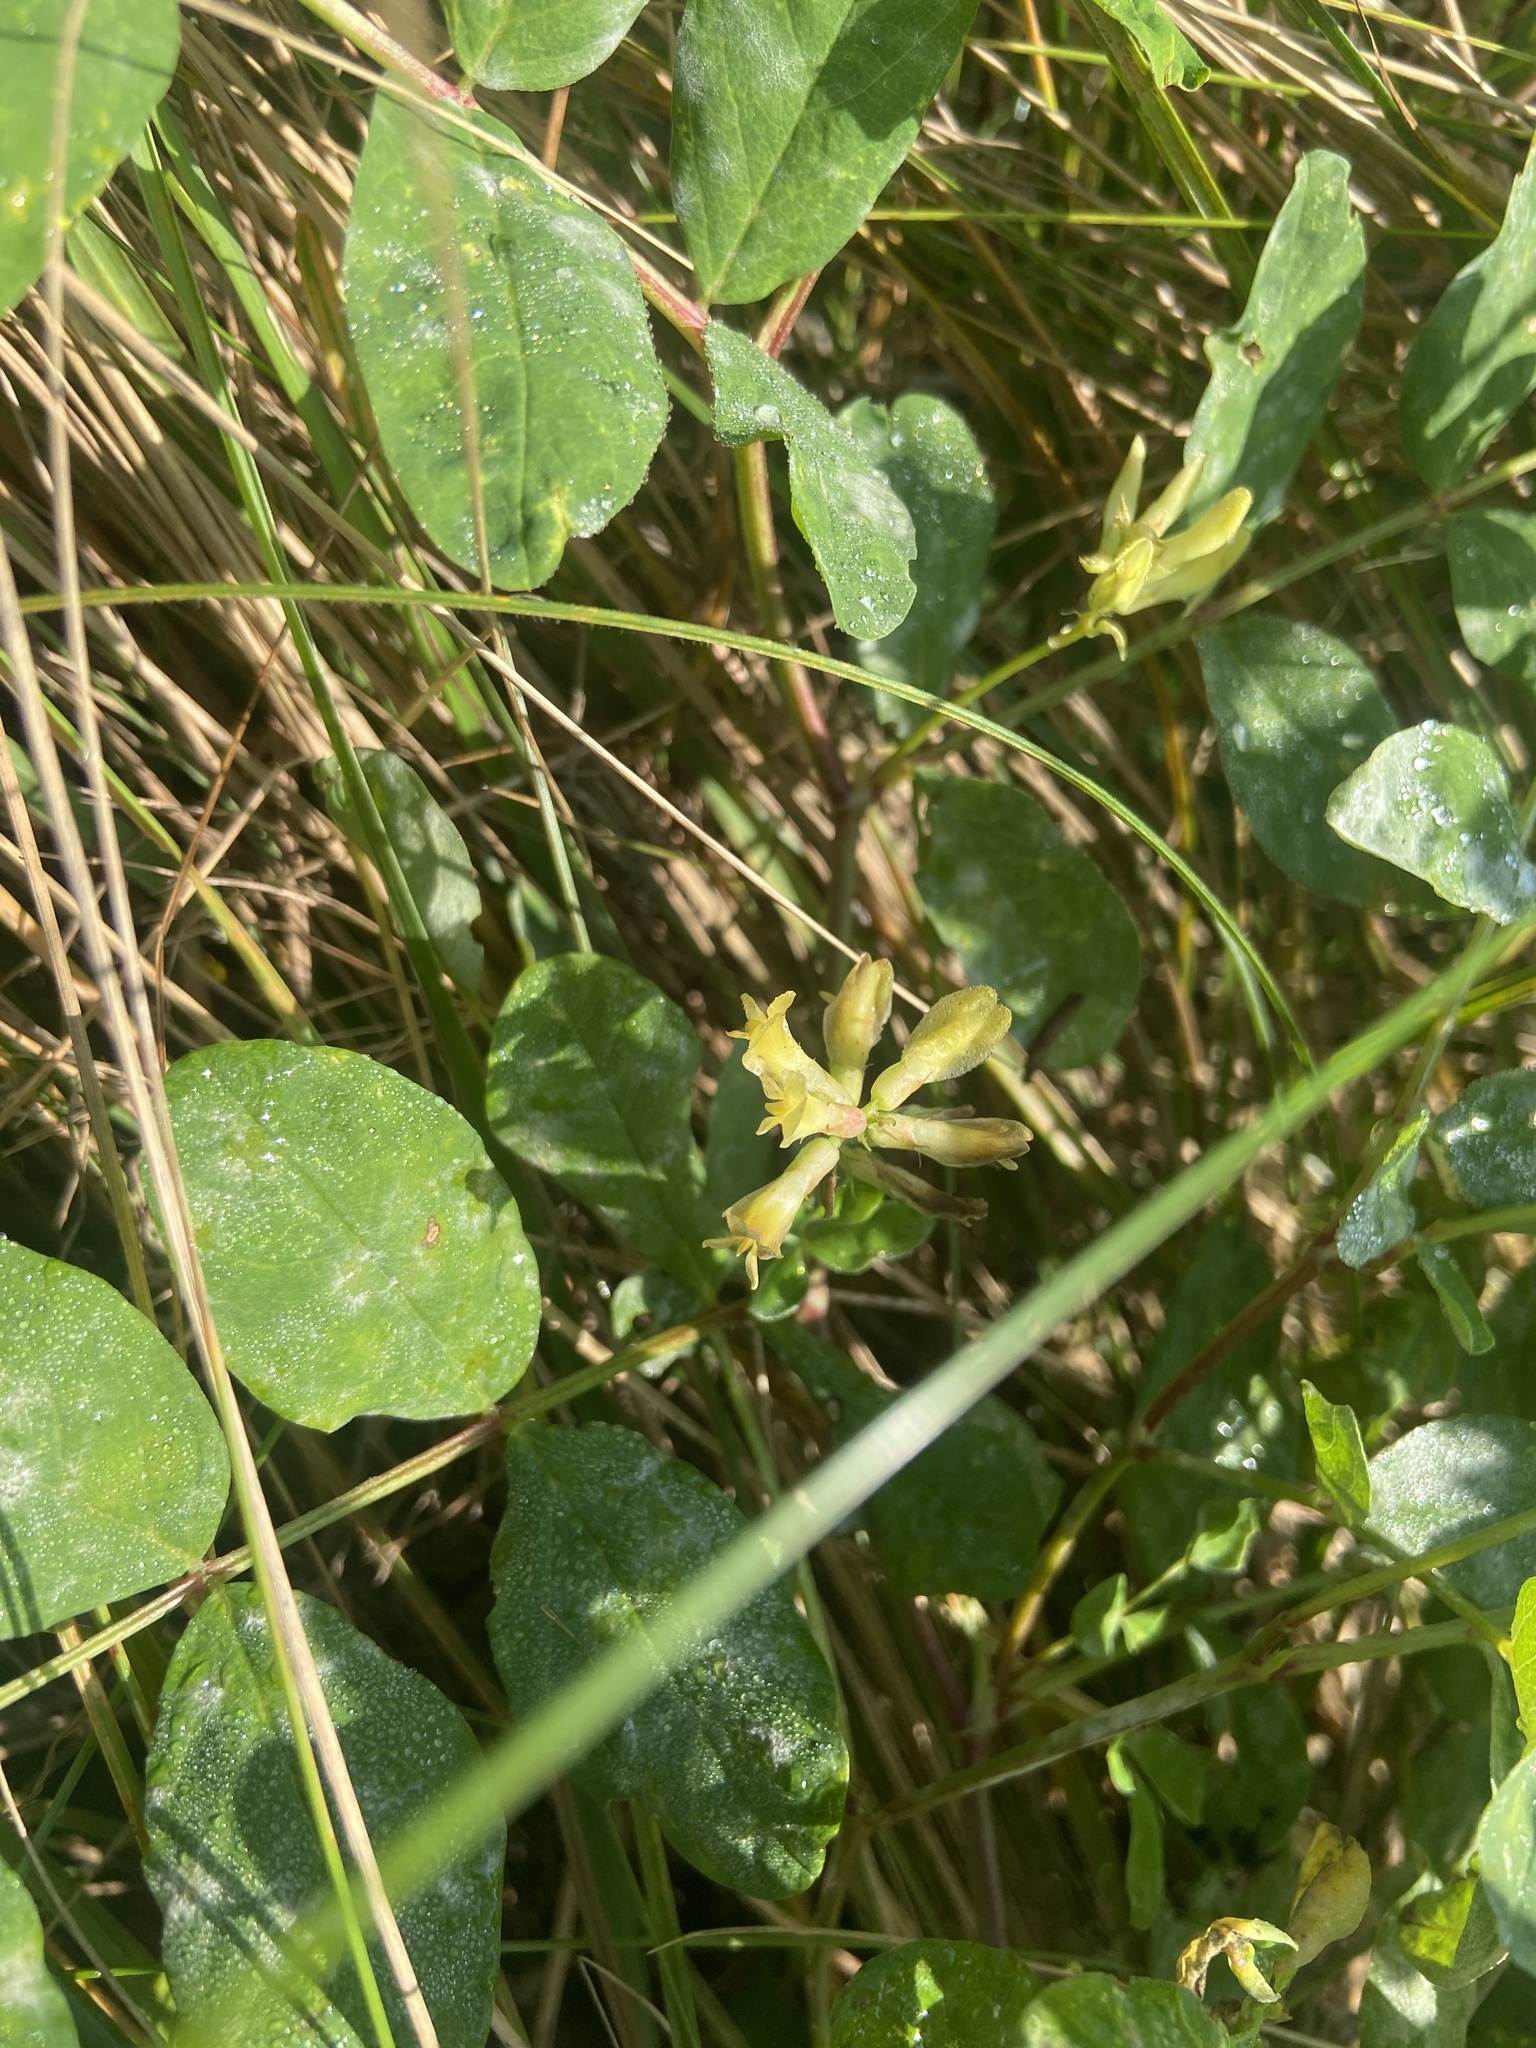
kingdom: Plantae
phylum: Tracheophyta
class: Magnoliopsida
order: Fabales
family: Fabaceae
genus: Astragalus
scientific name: Astragalus glycyphyllos
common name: Wild liquorice
